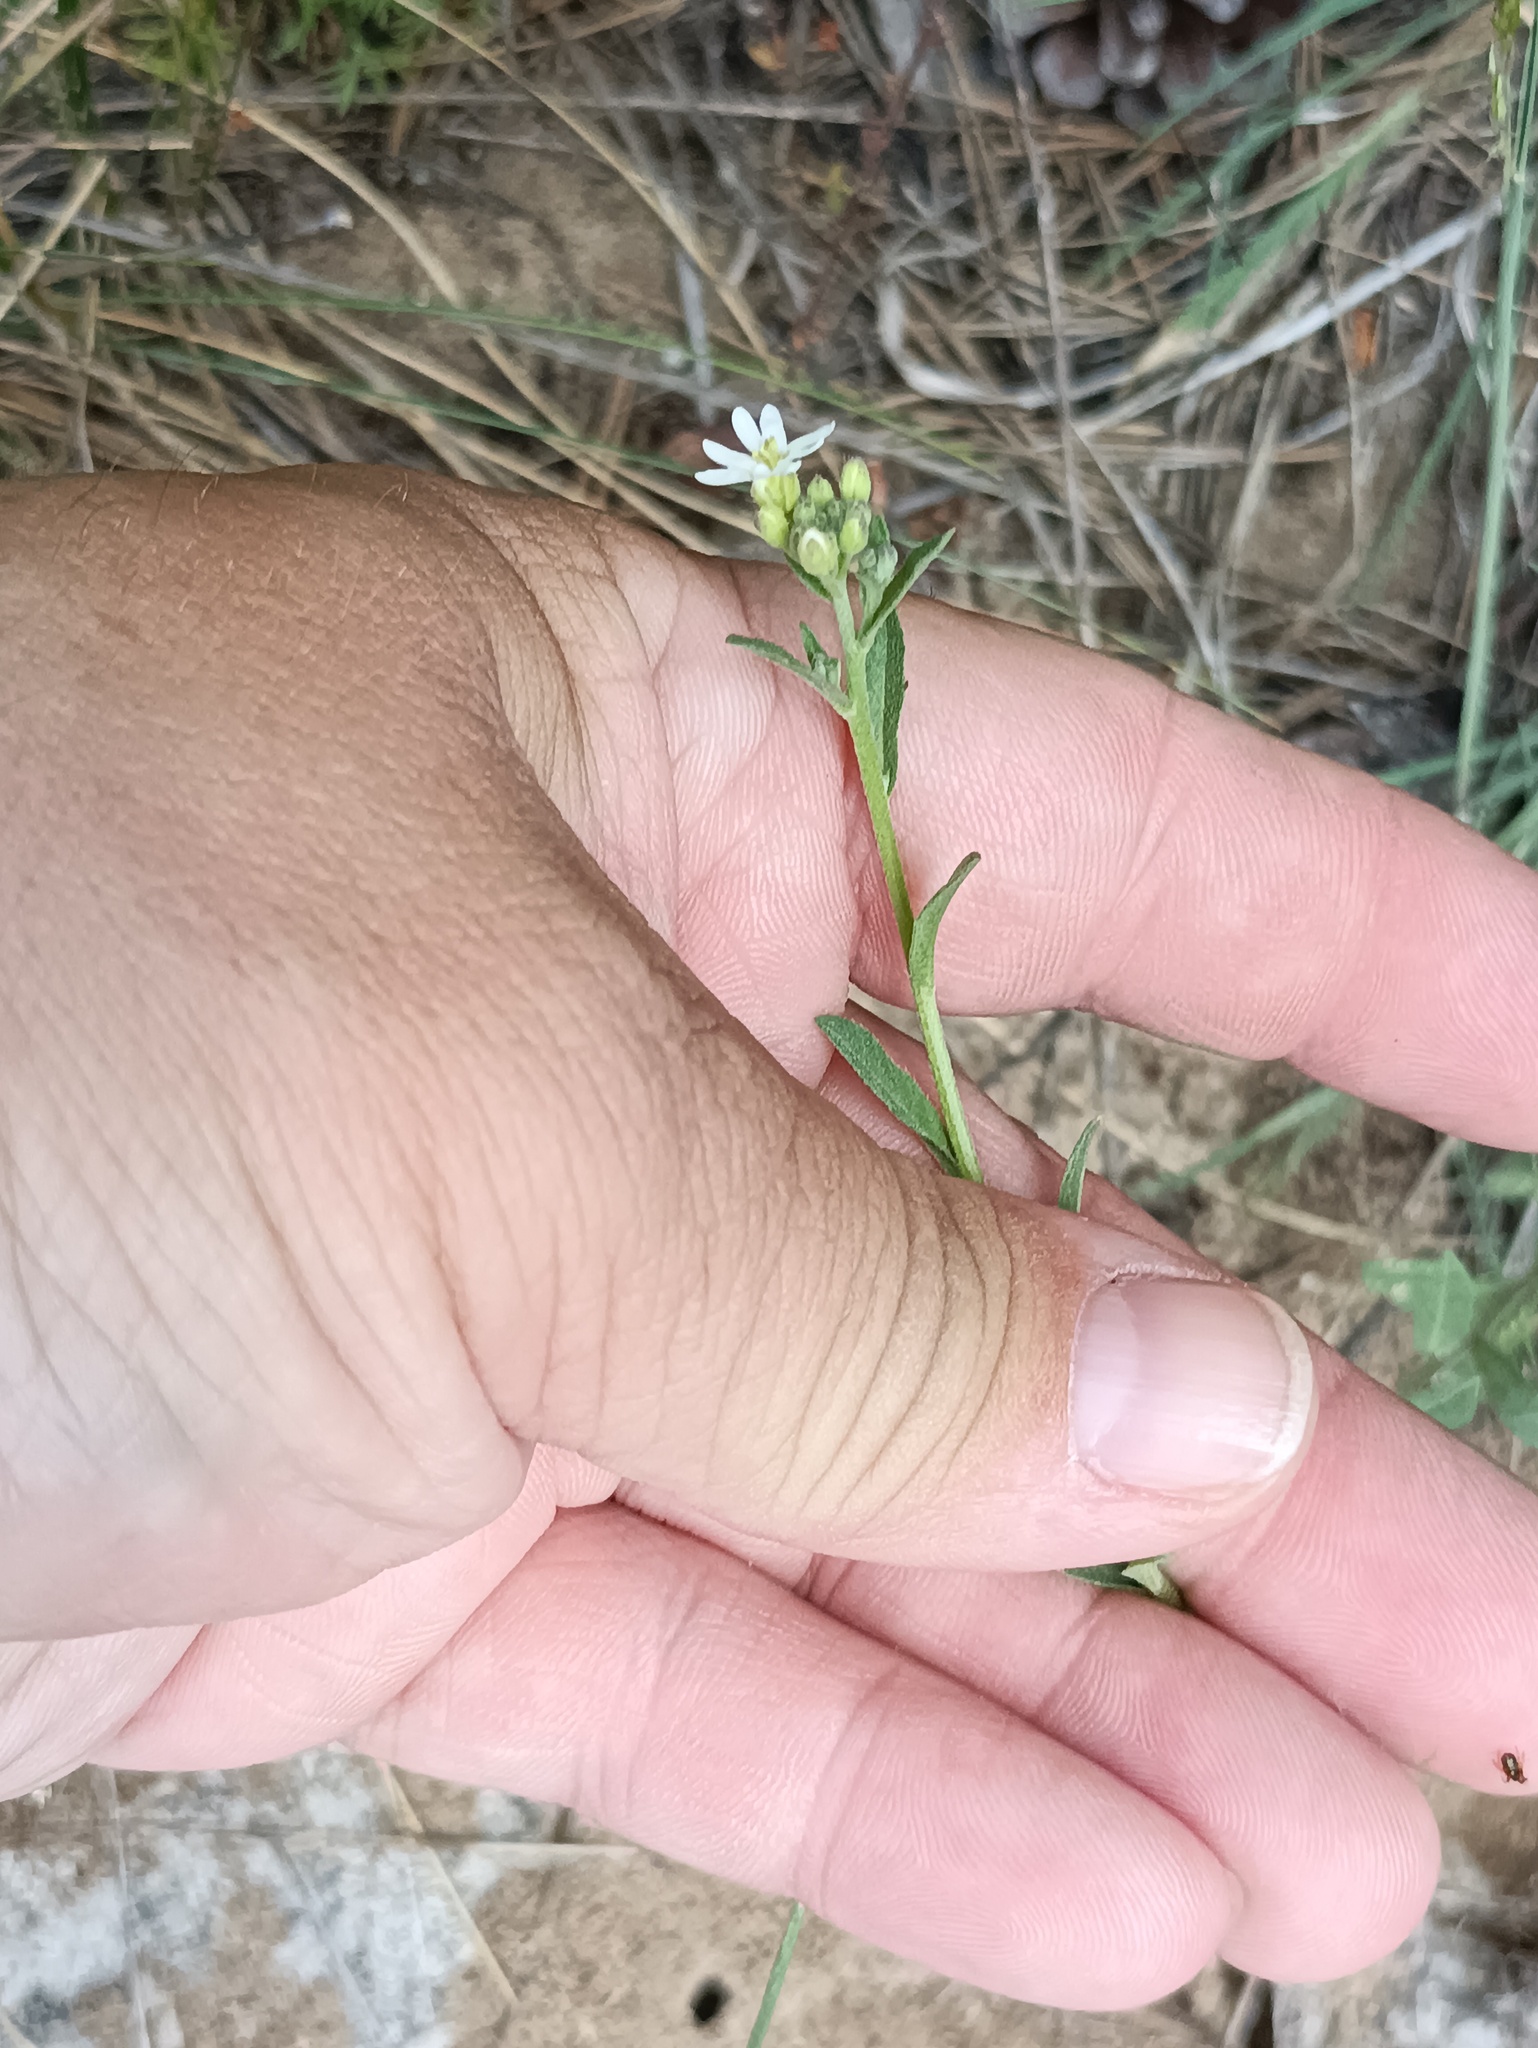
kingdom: Plantae
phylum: Tracheophyta
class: Magnoliopsida
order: Brassicales
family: Brassicaceae
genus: Berteroa
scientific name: Berteroa incana
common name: Hoary alison
